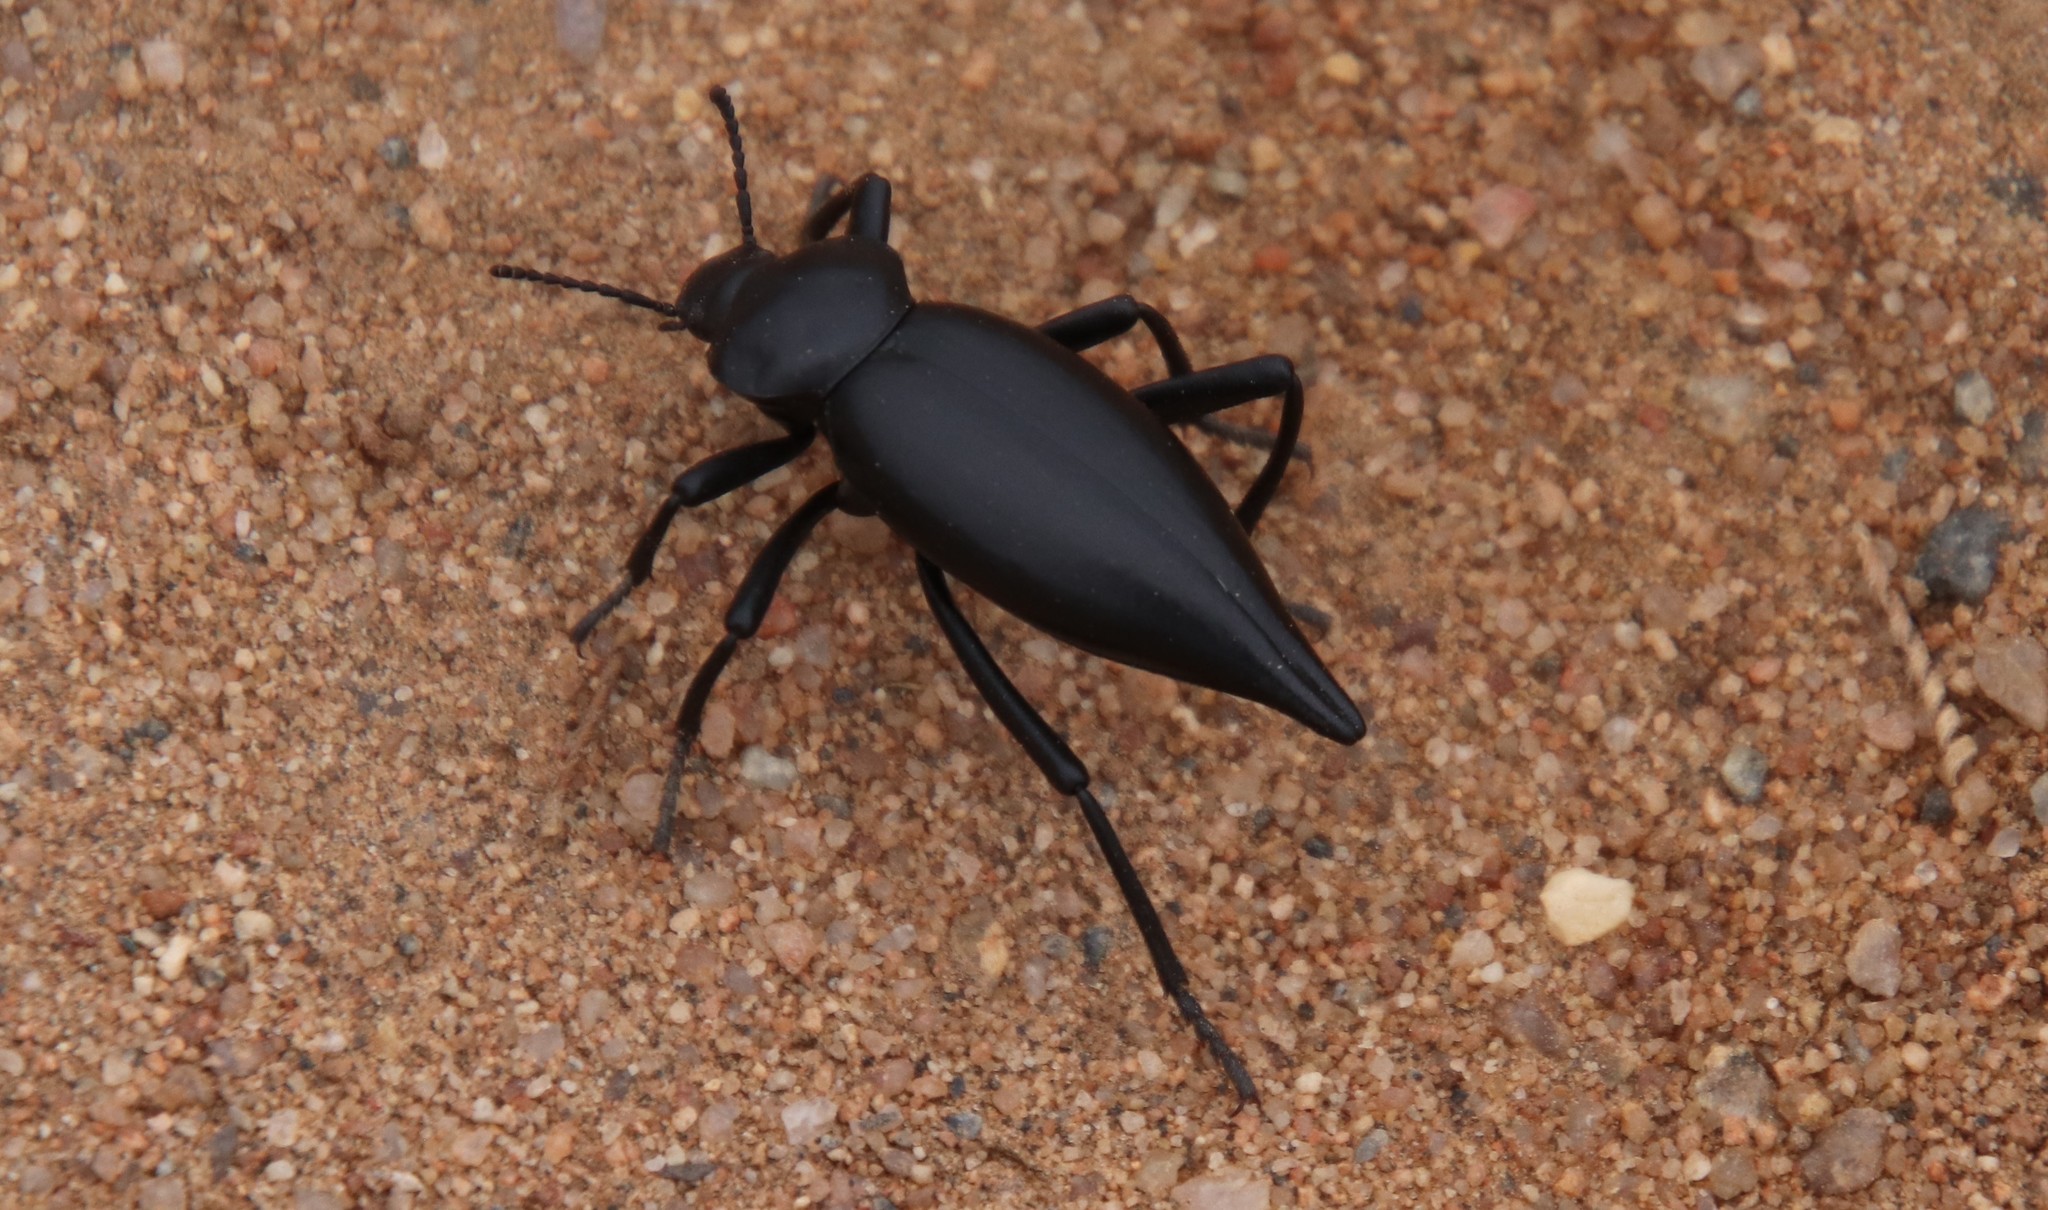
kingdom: Animalia
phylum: Arthropoda
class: Insecta
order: Coleoptera
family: Tenebrionidae
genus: Eleodes
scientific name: Eleodes acuticauda
